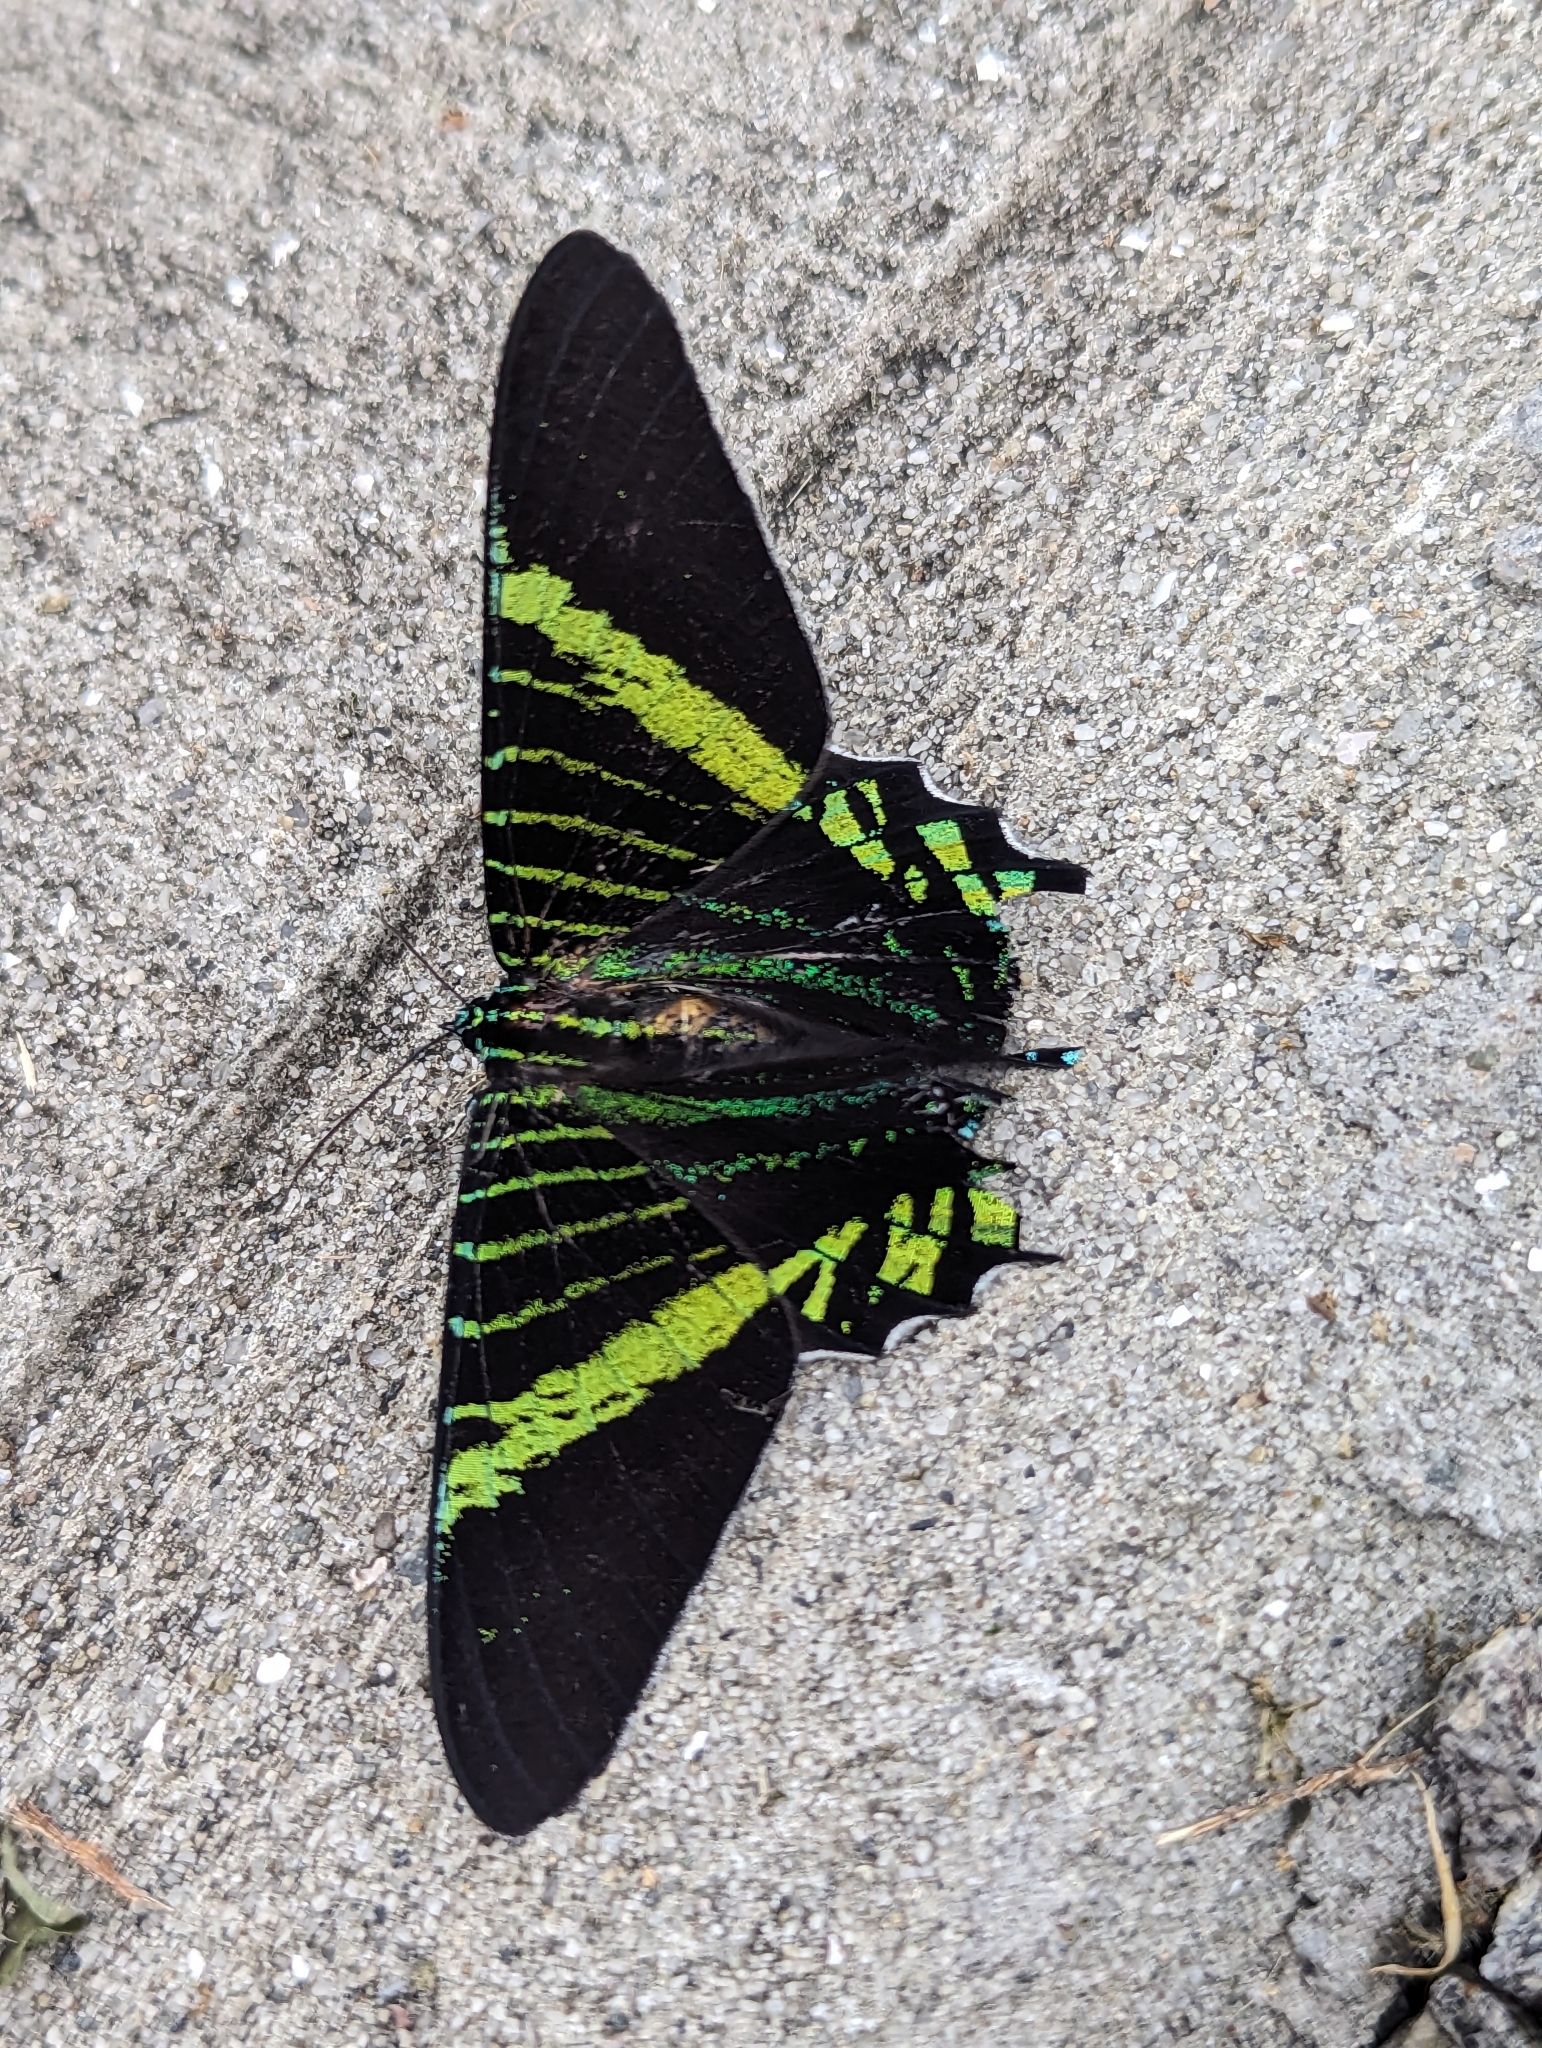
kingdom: Animalia
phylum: Arthropoda
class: Insecta
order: Lepidoptera
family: Uraniidae
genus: Urania
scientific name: Urania fulgens
